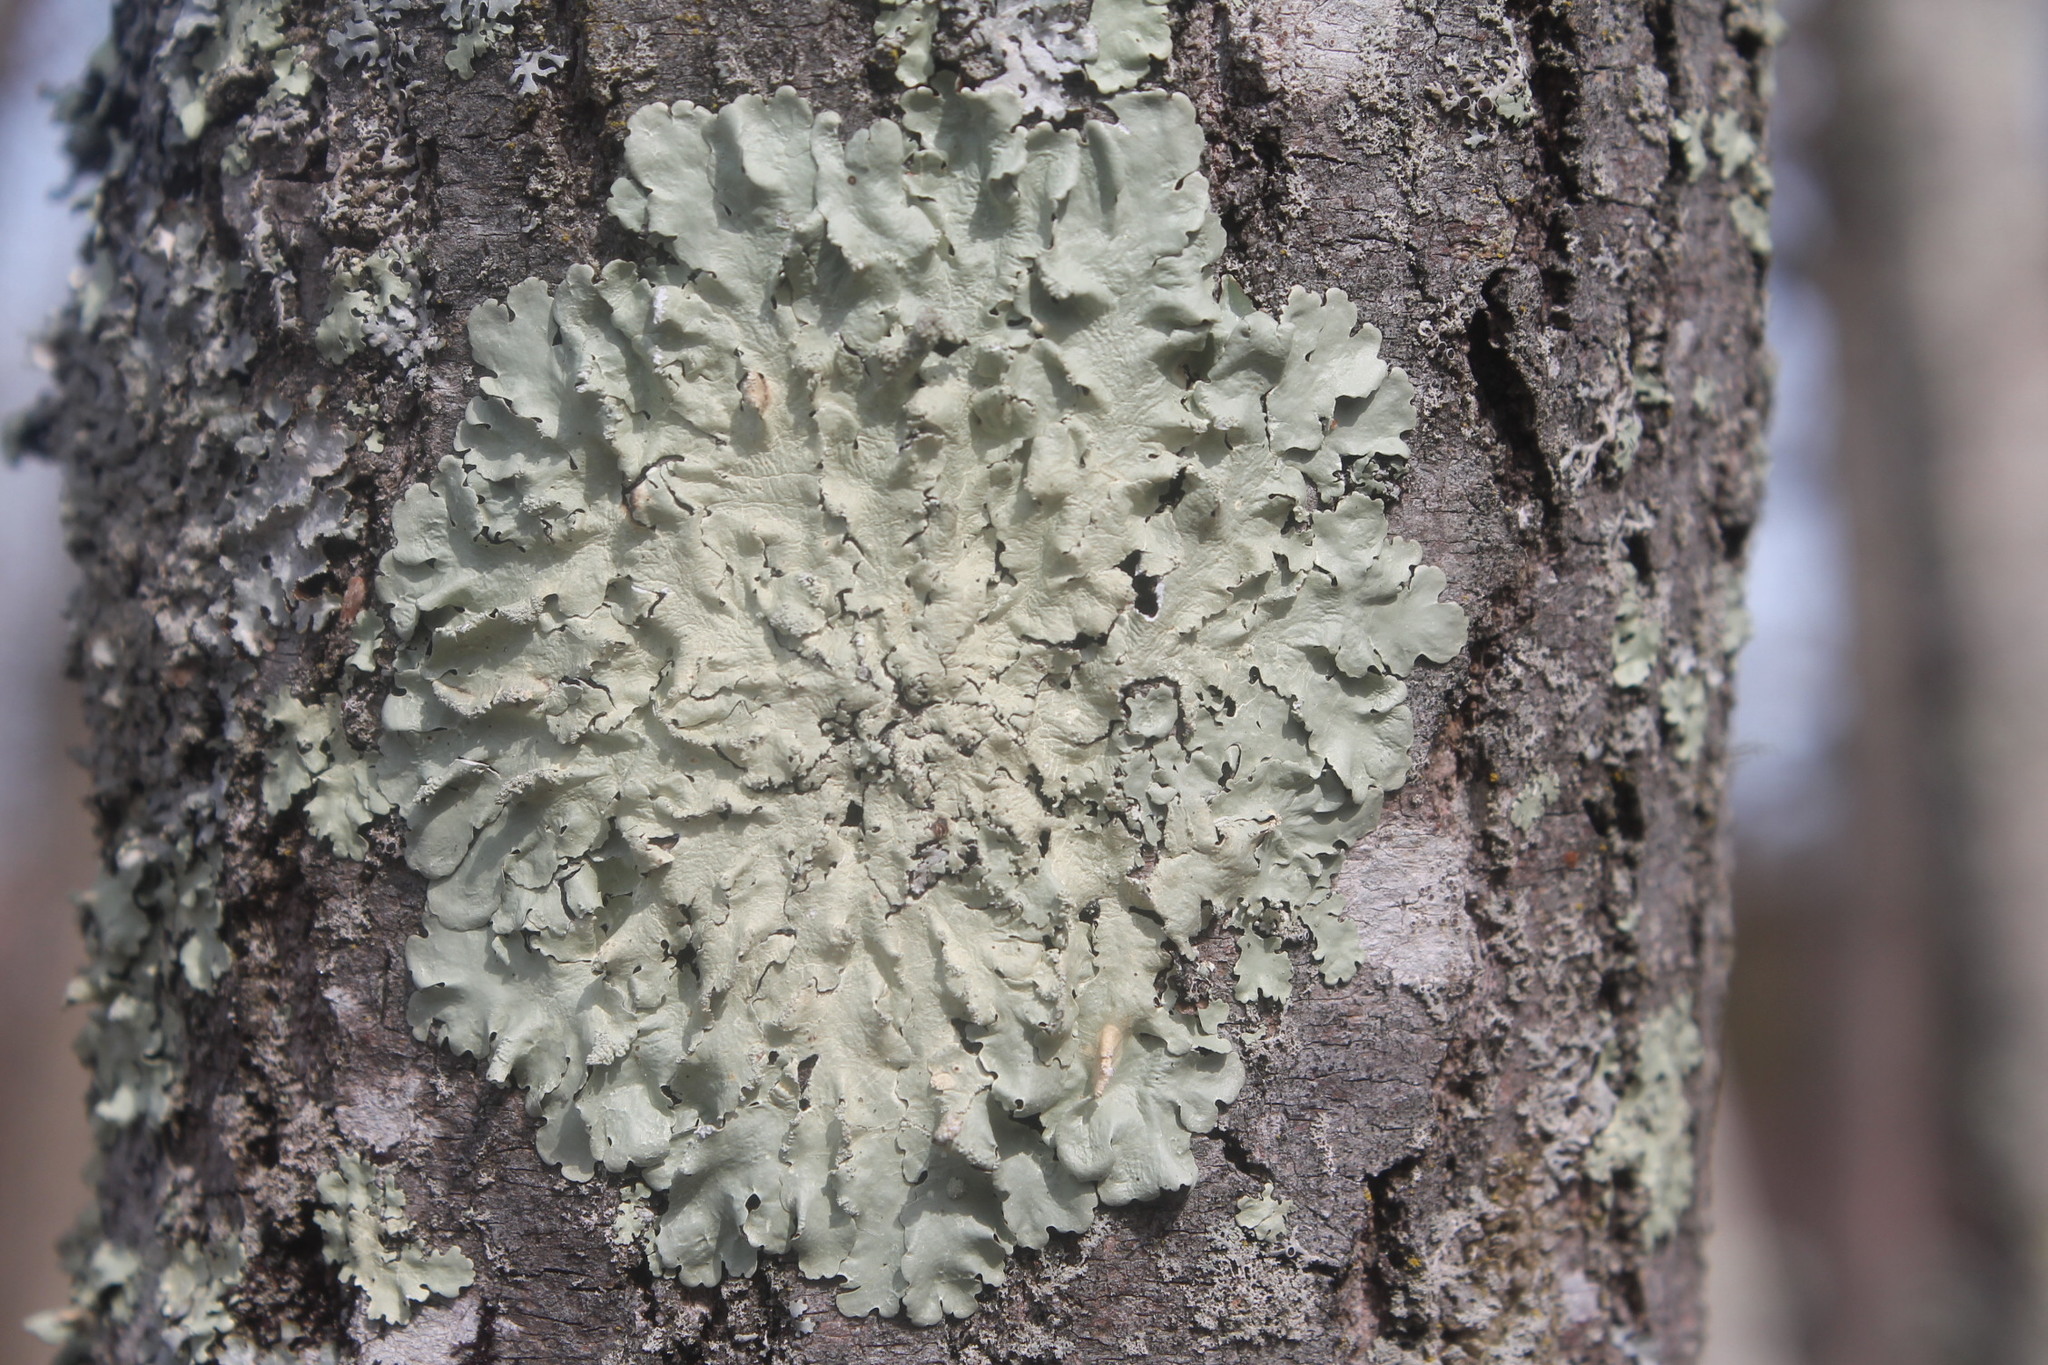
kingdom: Fungi
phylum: Ascomycota
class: Lecanoromycetes
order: Lecanorales
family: Parmeliaceae
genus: Flavoparmelia
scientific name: Flavoparmelia caperata
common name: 40-mile per hour lichen
